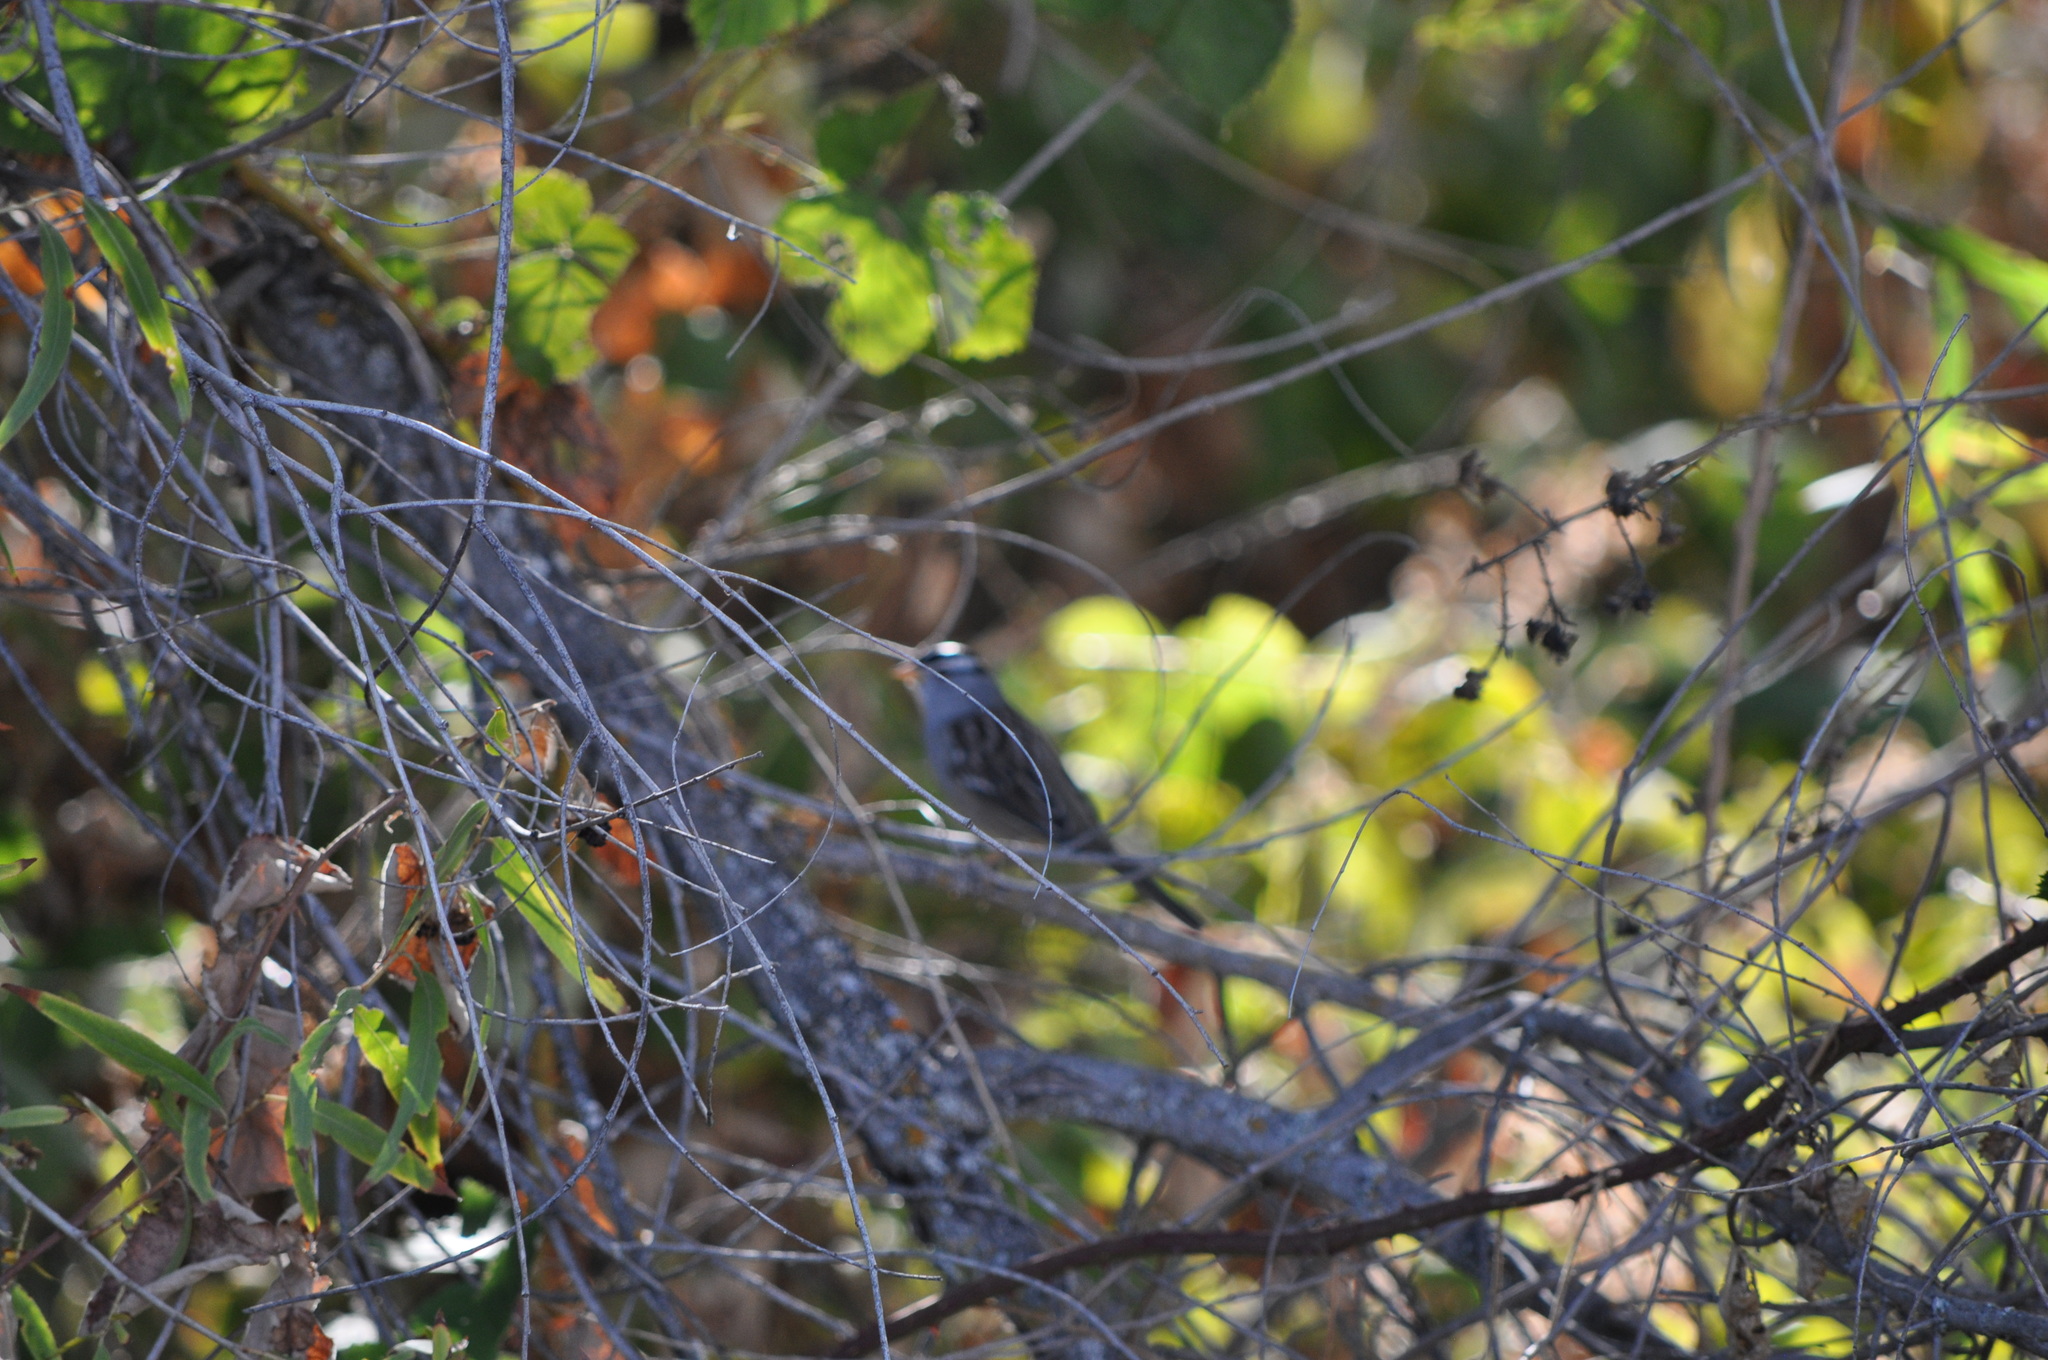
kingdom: Animalia
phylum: Chordata
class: Aves
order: Passeriformes
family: Passerellidae
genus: Zonotrichia
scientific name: Zonotrichia leucophrys
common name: White-crowned sparrow
